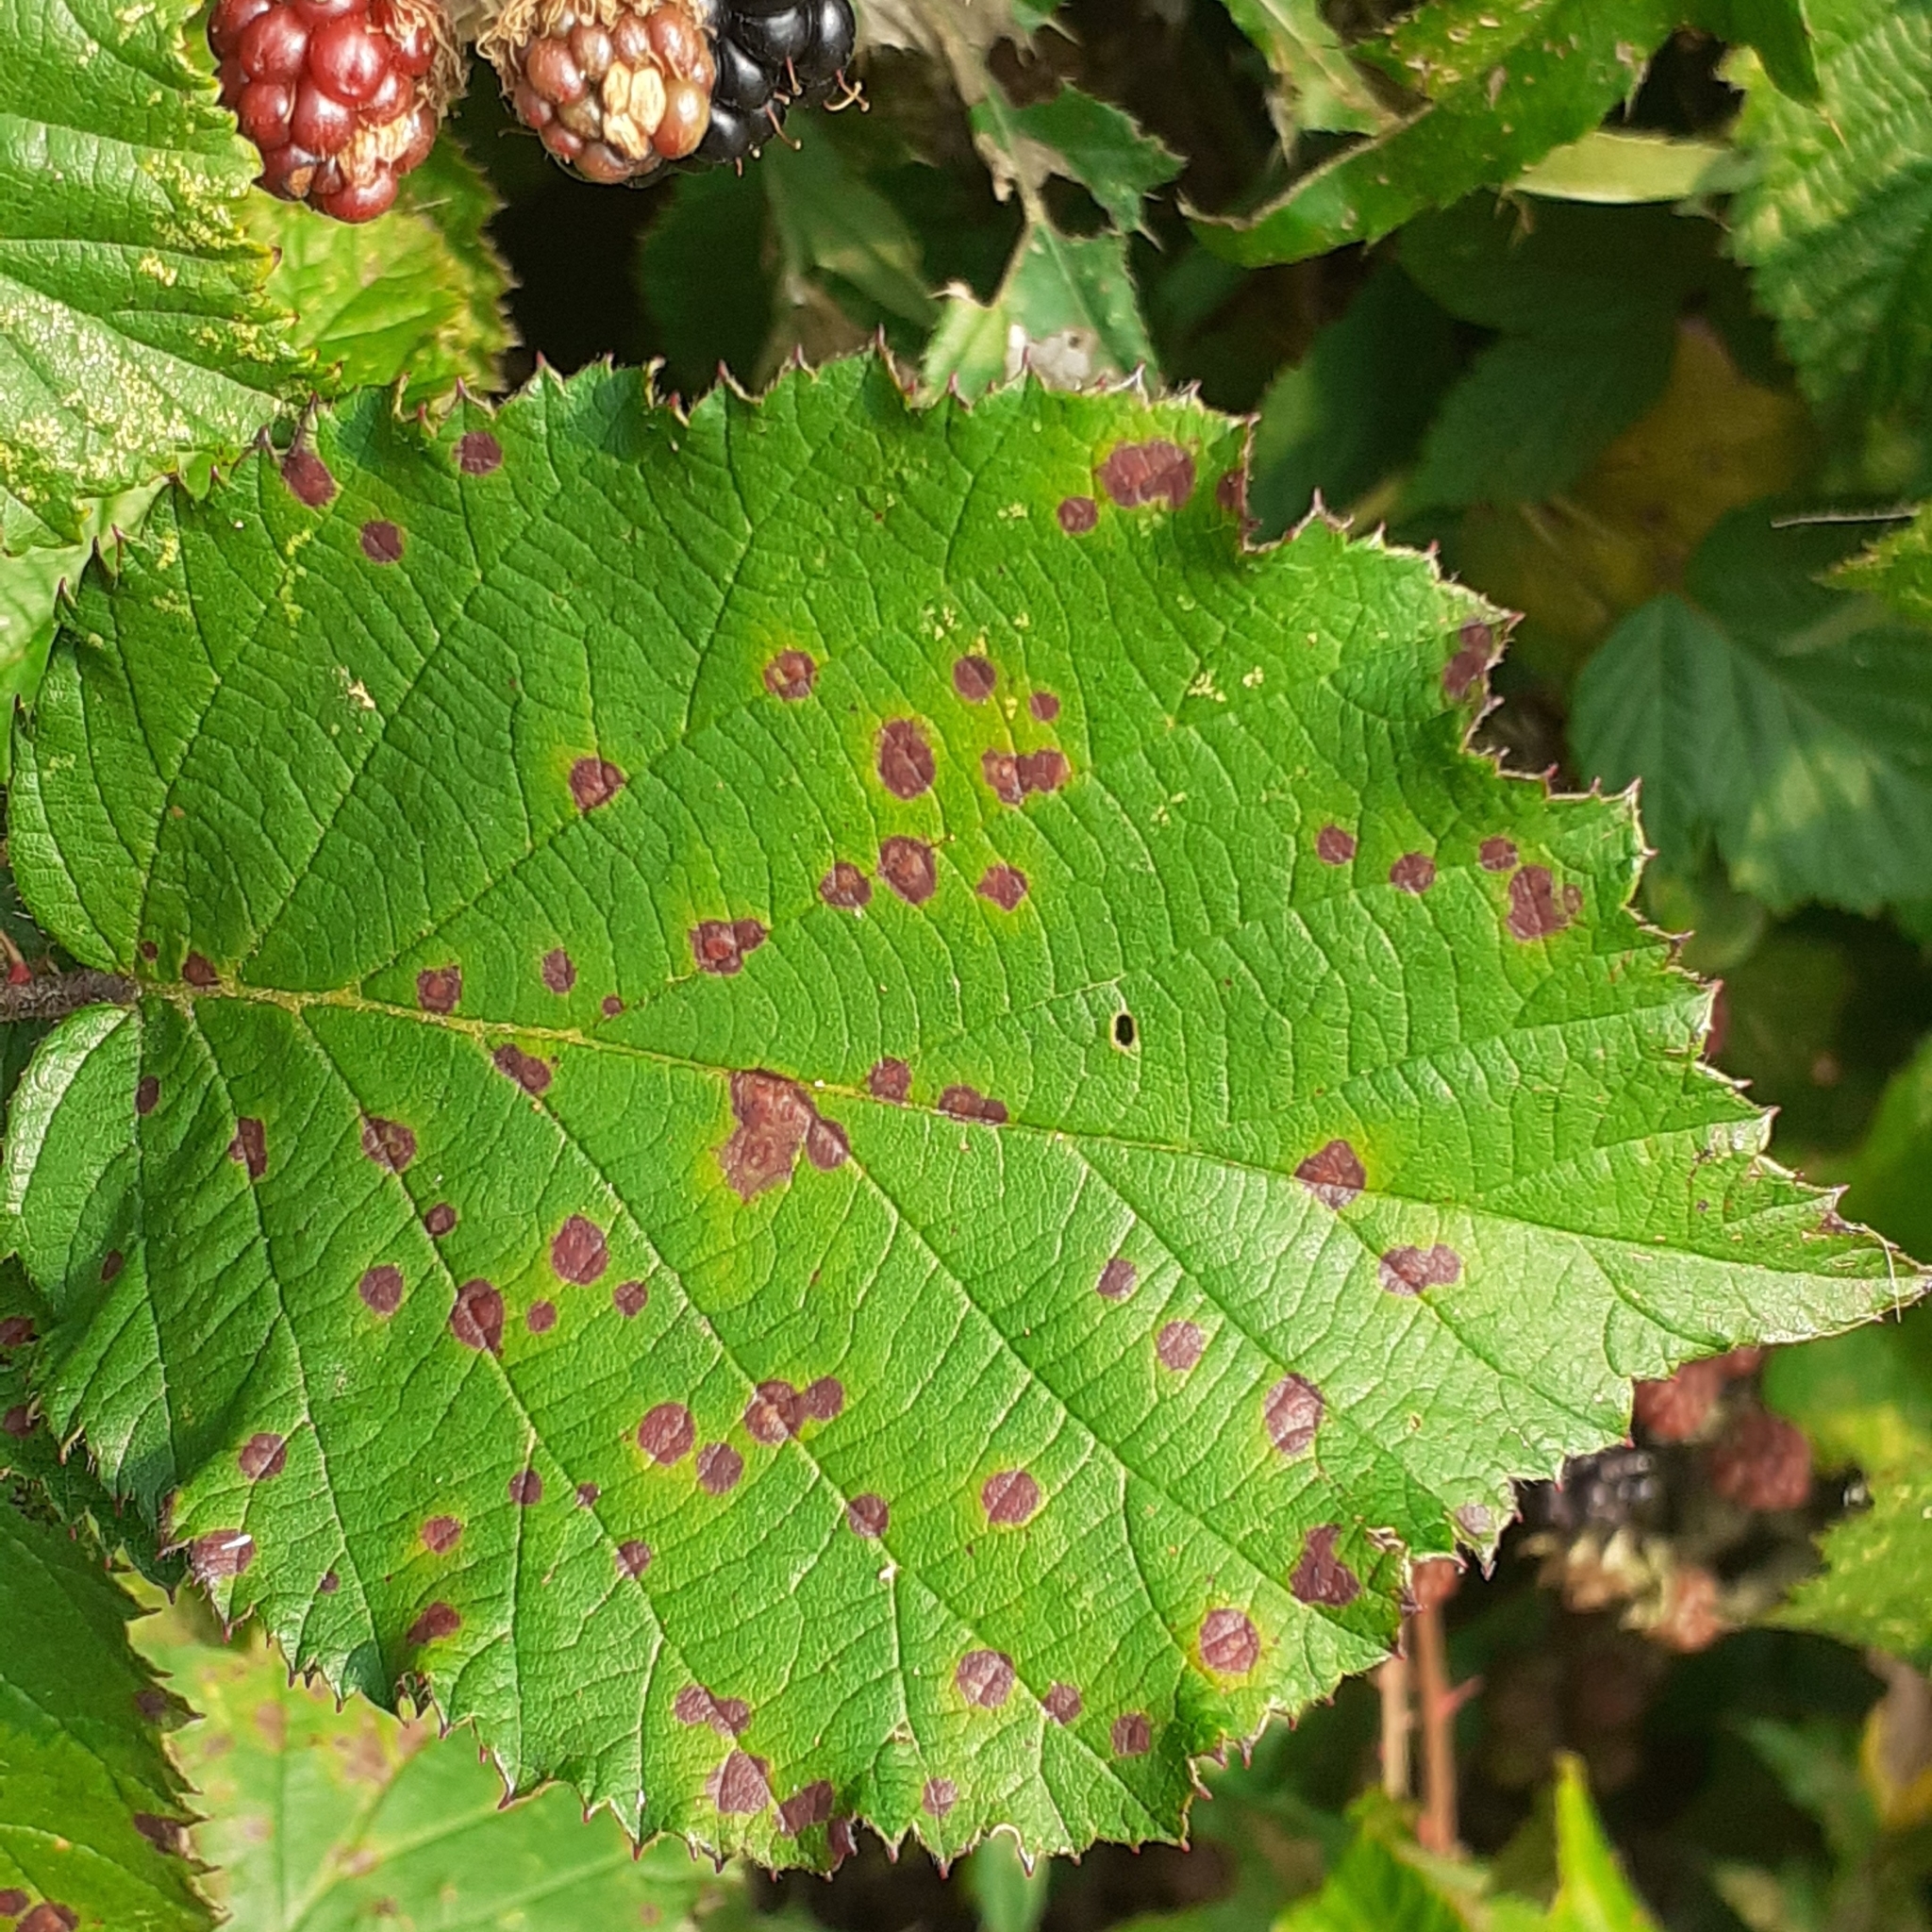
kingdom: Fungi
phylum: Basidiomycota
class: Pucciniomycetes
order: Pucciniales
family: Phragmidiaceae
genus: Phragmidium
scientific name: Phragmidium violaceum
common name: Violet bramble rust
